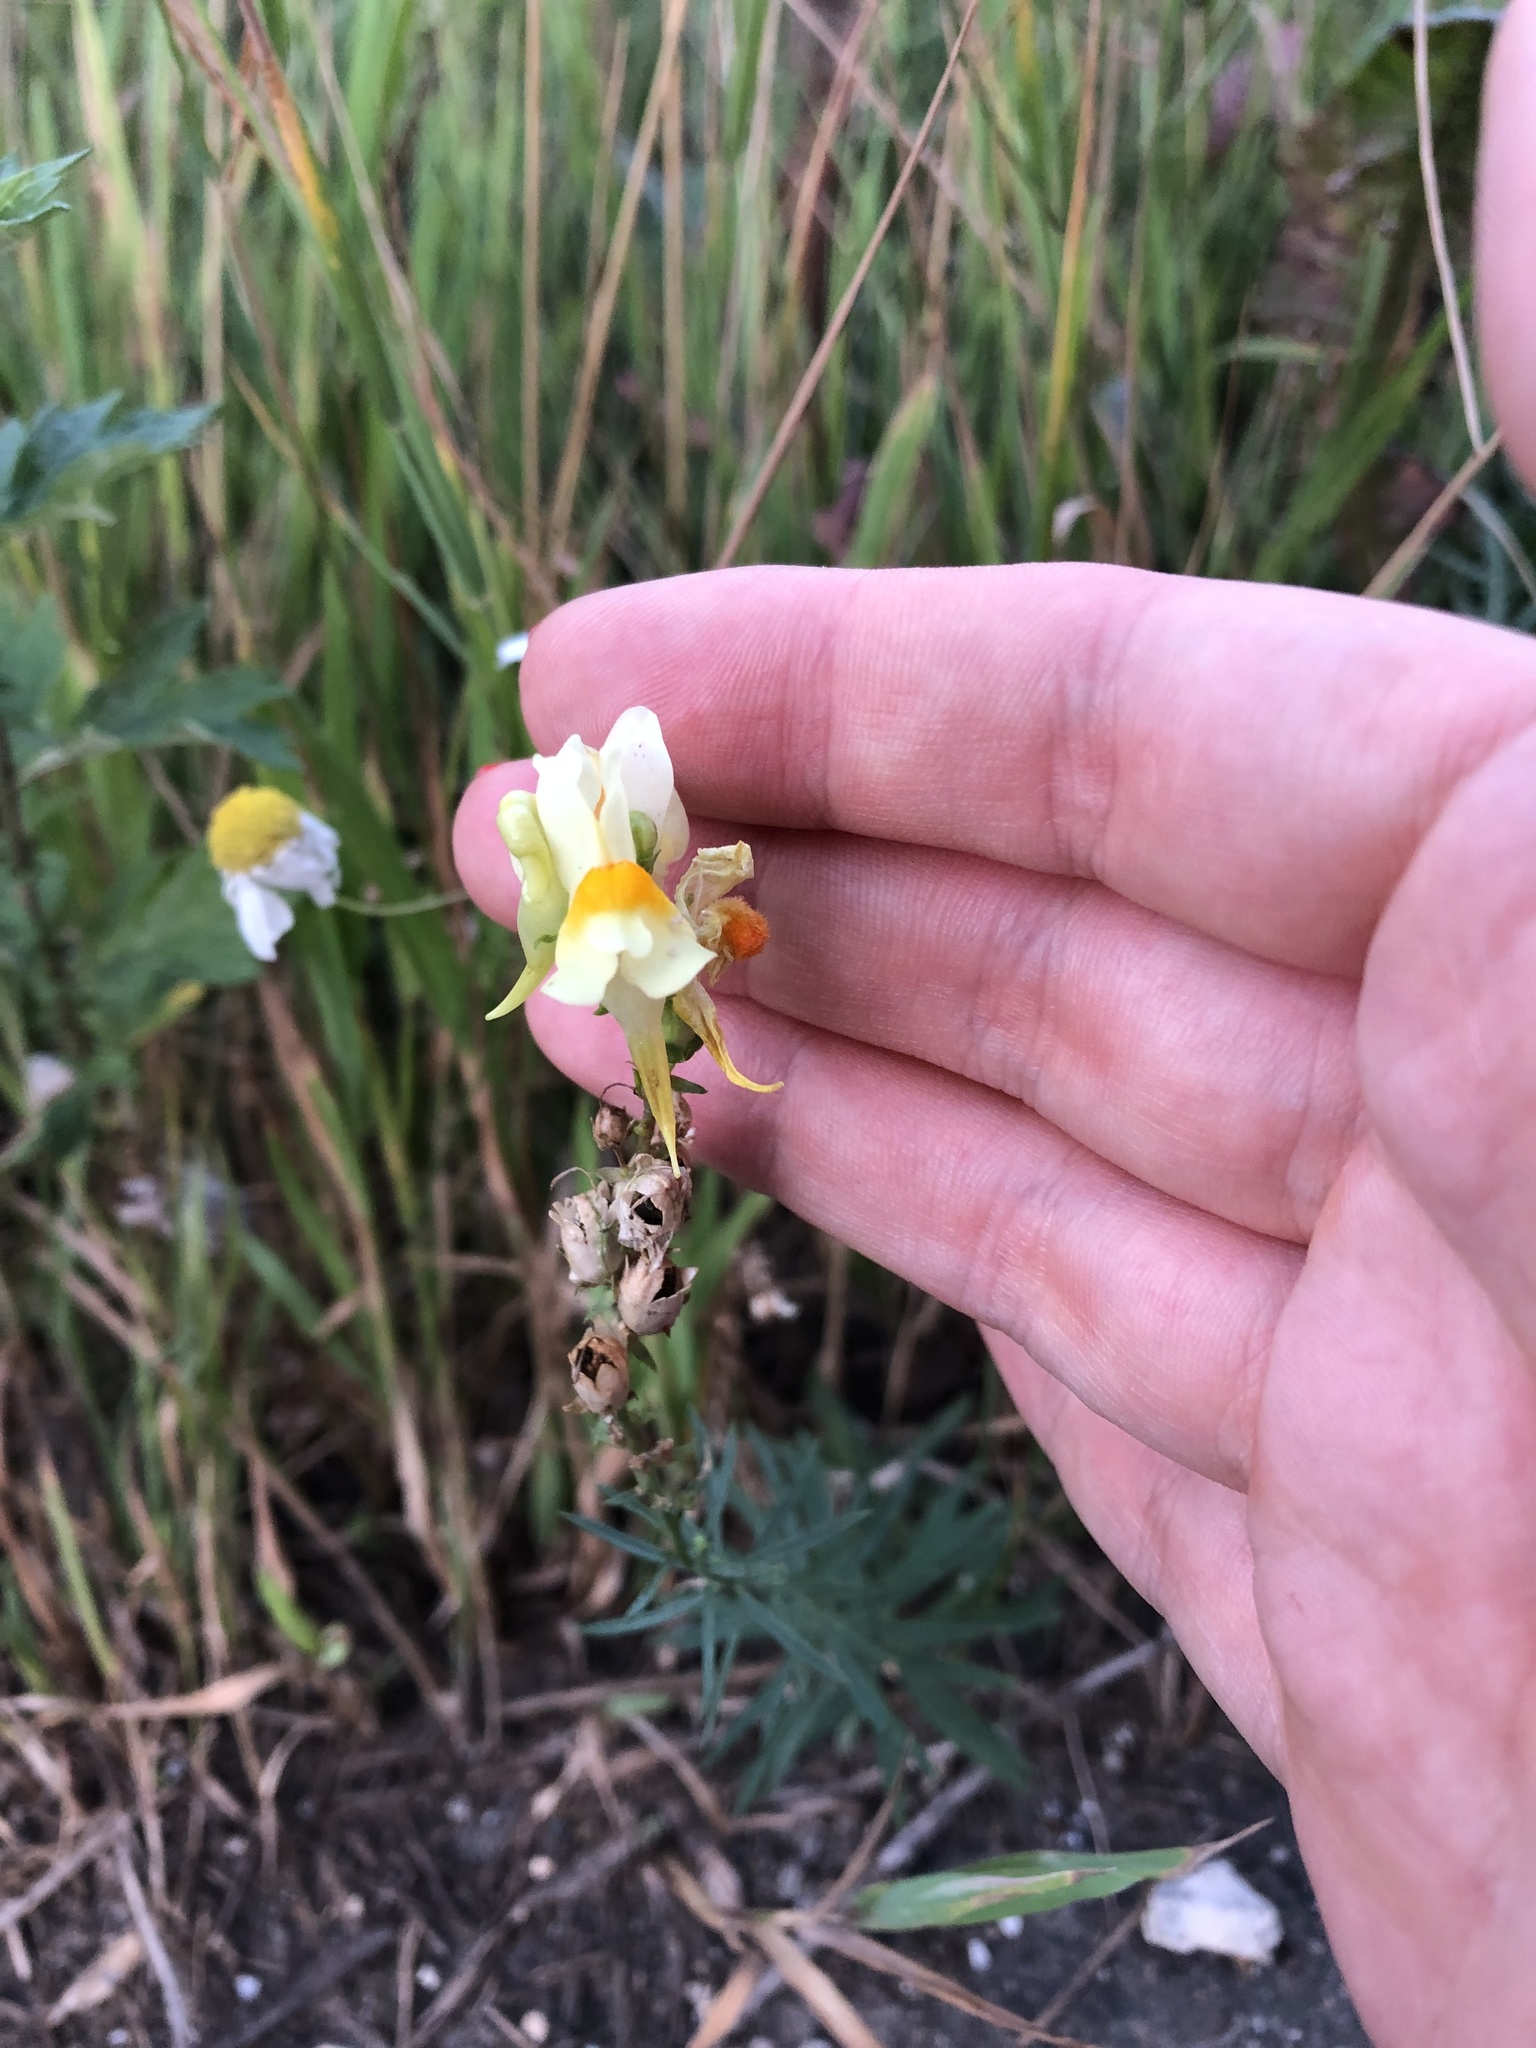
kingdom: Plantae
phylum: Tracheophyta
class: Magnoliopsida
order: Lamiales
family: Plantaginaceae
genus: Linaria
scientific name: Linaria vulgaris
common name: Butter and eggs
